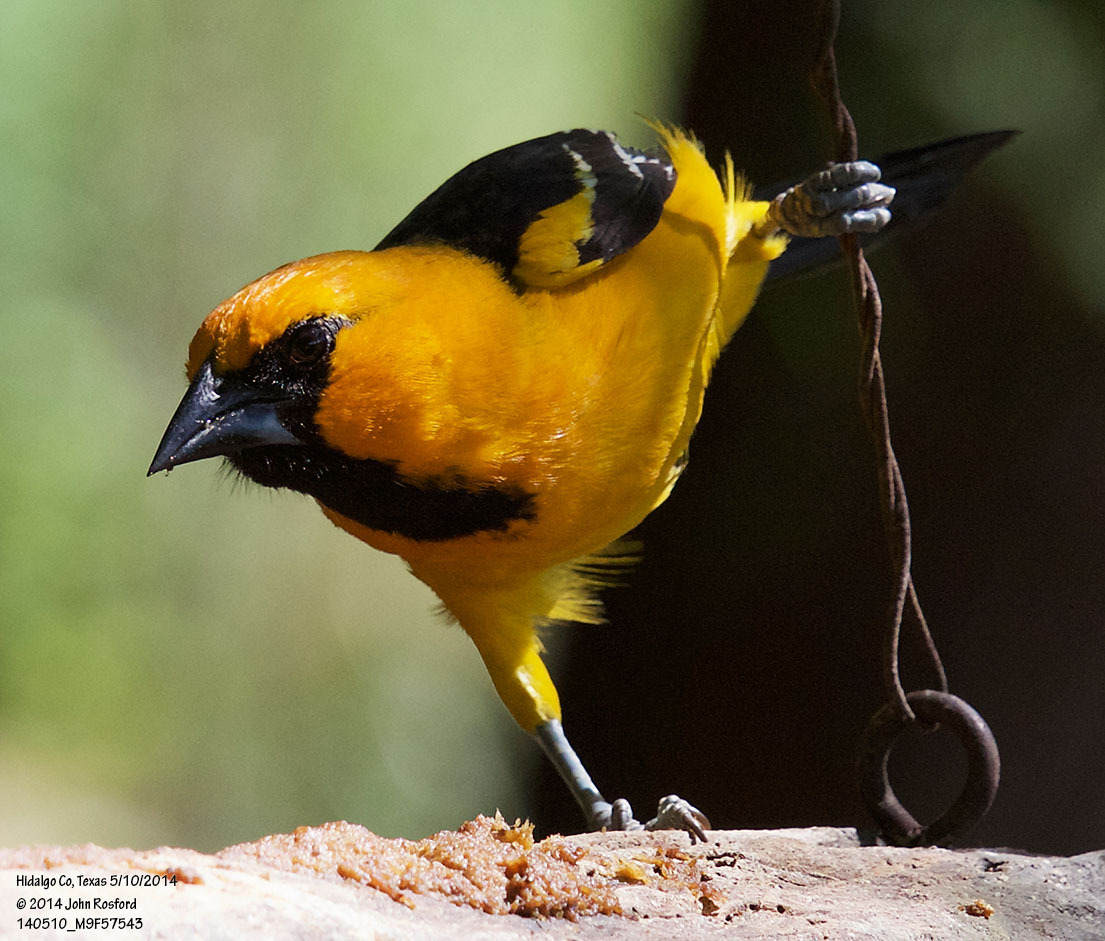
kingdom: Animalia
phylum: Chordata
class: Aves
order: Passeriformes
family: Icteridae
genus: Icterus
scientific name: Icterus gularis
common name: Altamira oriole
